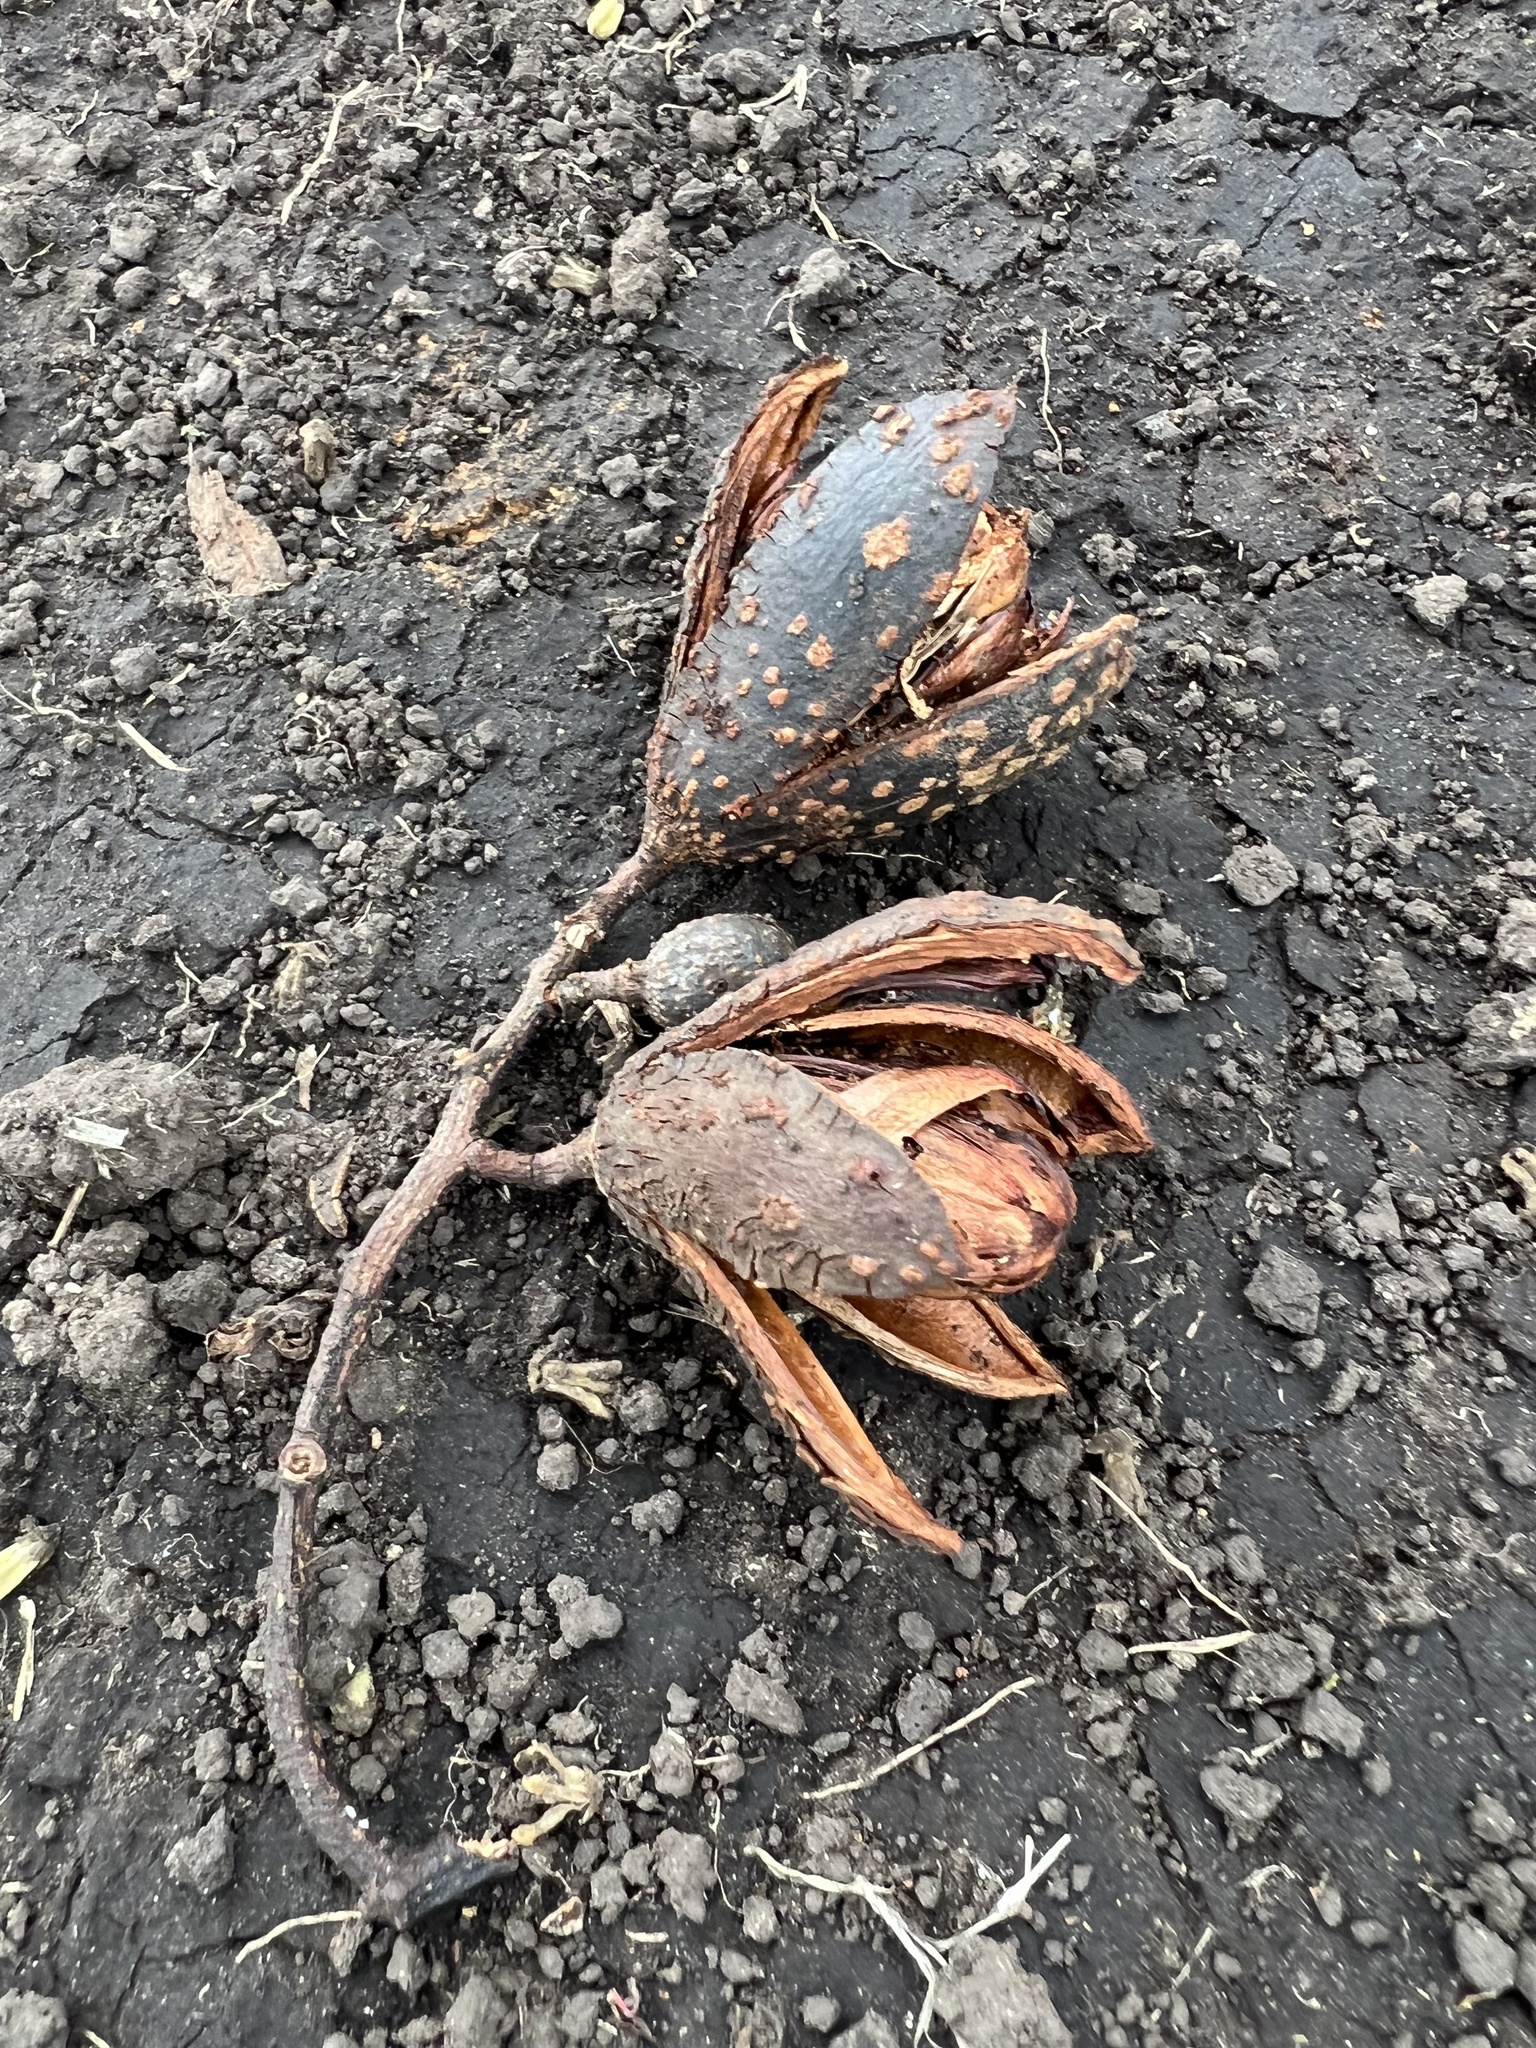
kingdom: Plantae
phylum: Tracheophyta
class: Magnoliopsida
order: Sapindales
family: Meliaceae
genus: Cedrela
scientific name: Cedrela montana
